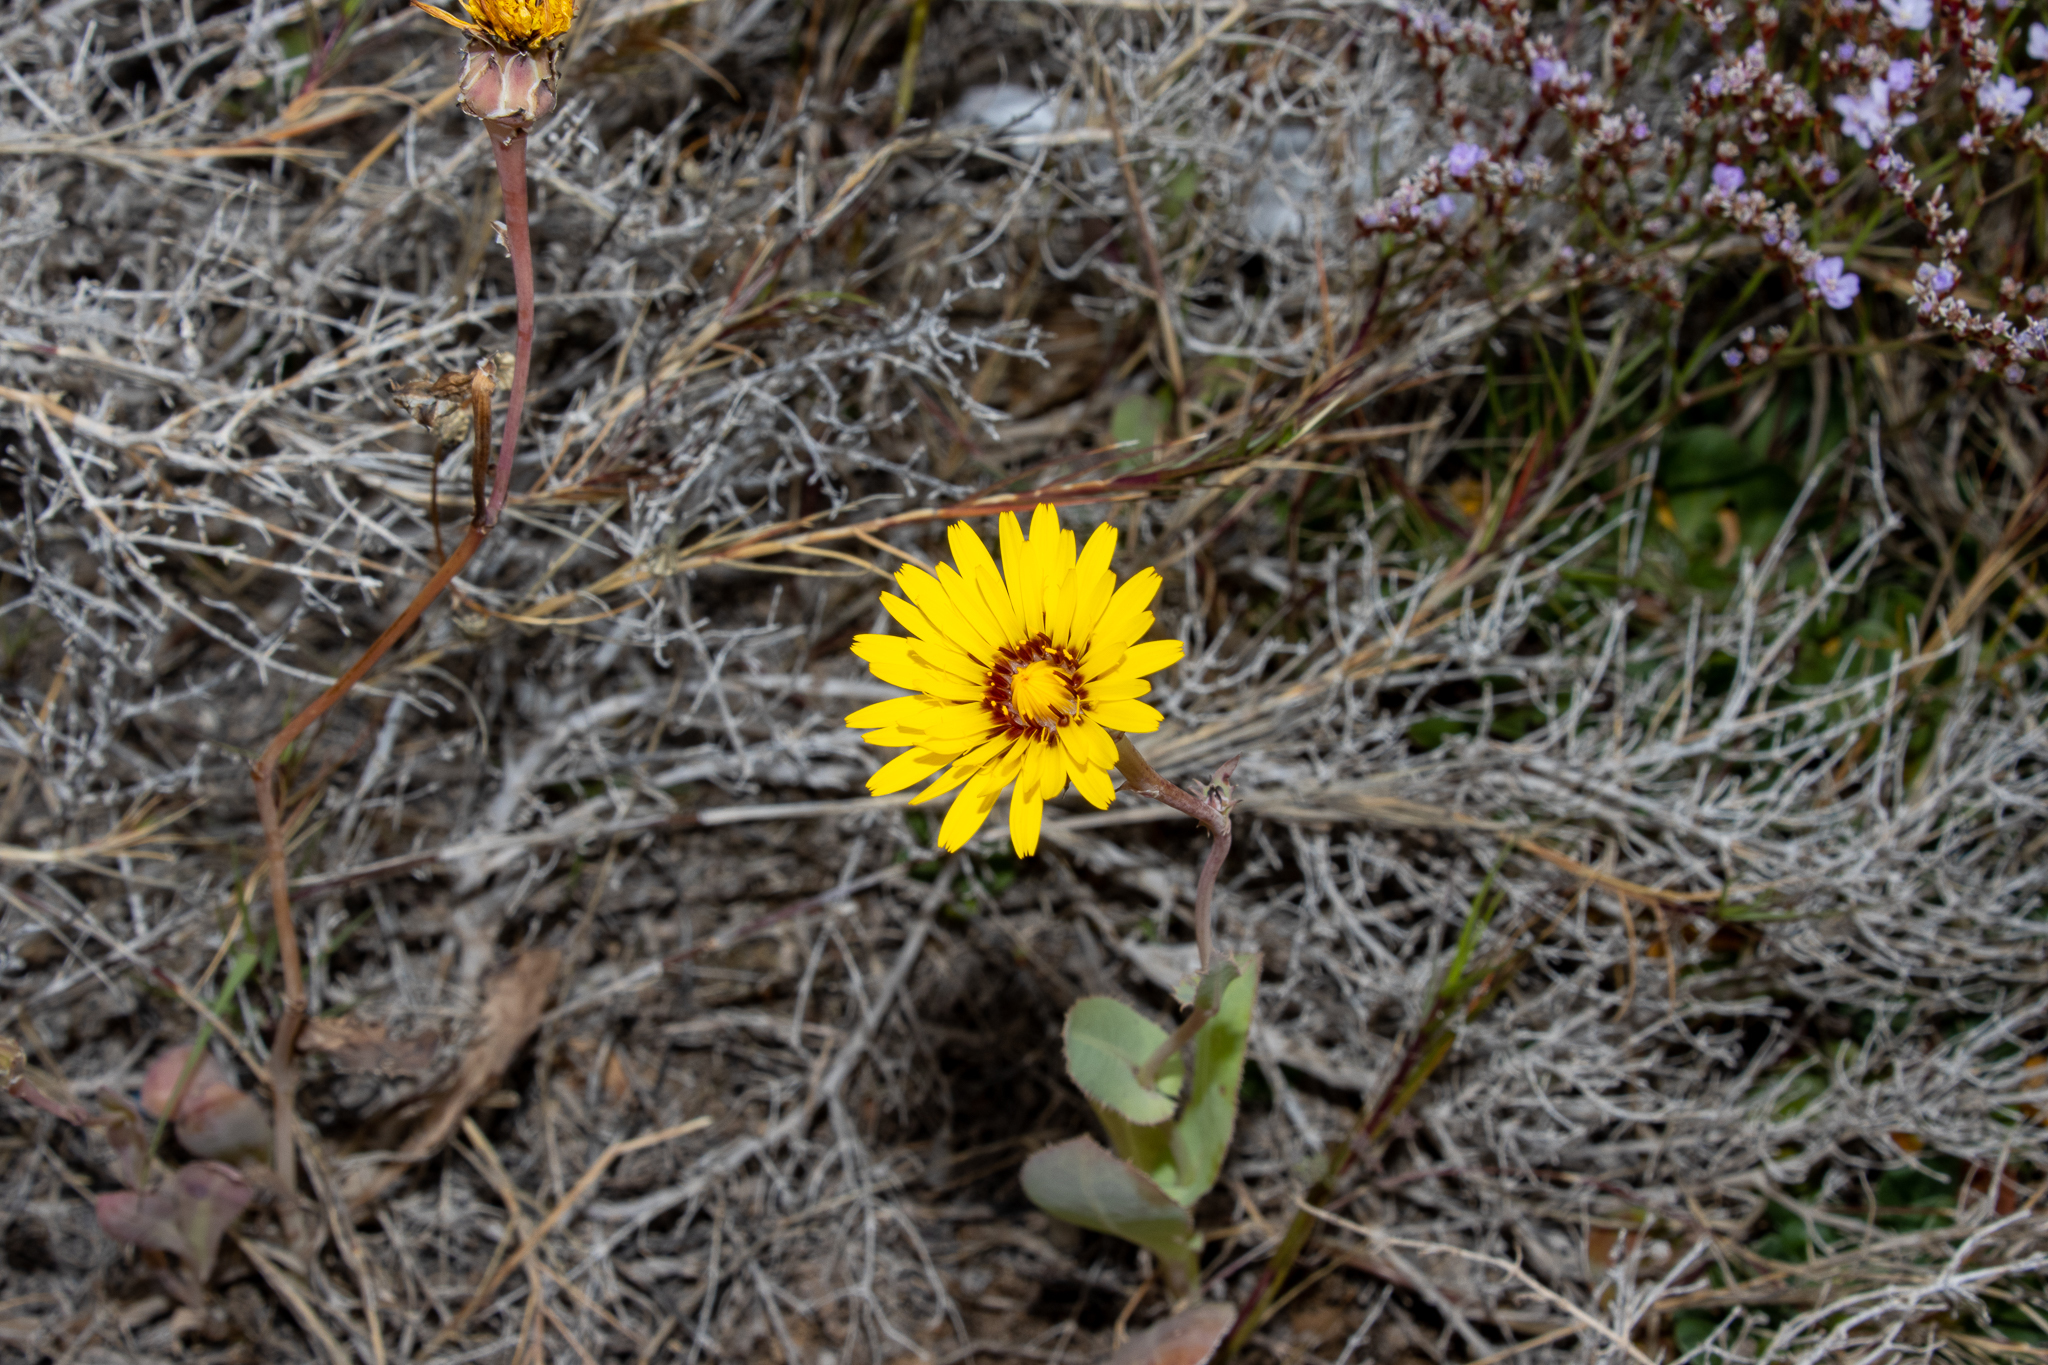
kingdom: Plantae
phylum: Tracheophyta
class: Magnoliopsida
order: Asterales
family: Asteraceae
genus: Reichardia
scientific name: Reichardia tingitana
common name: Reichardia
